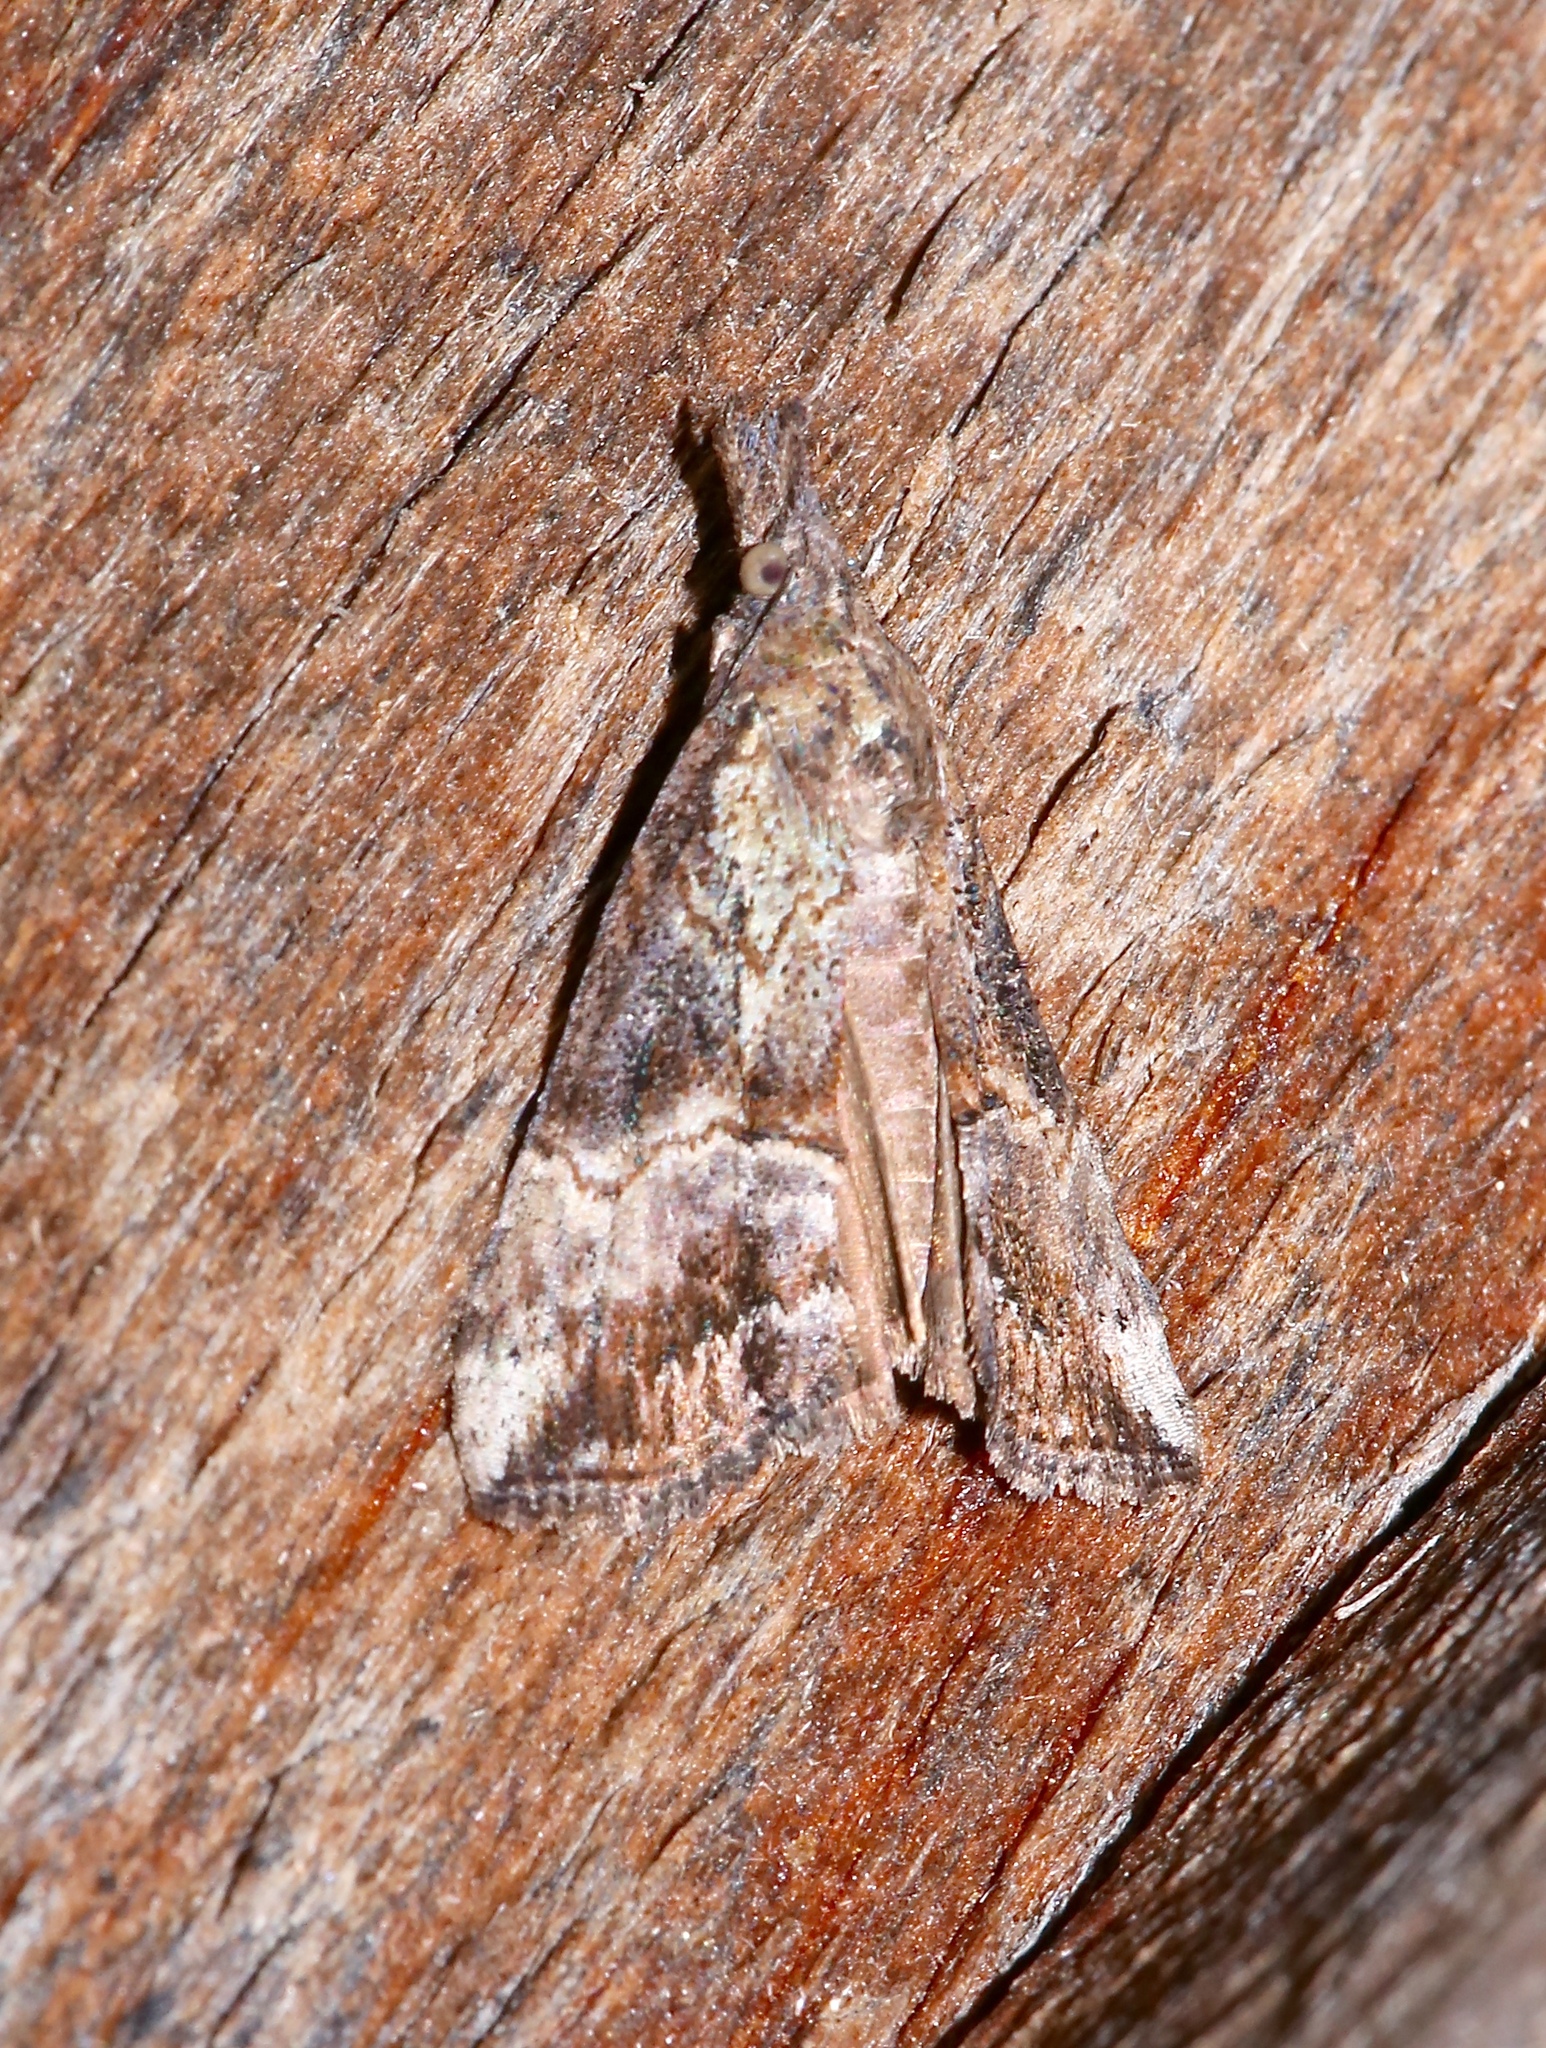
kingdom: Animalia
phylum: Arthropoda
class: Insecta
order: Lepidoptera
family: Erebidae
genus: Hypena
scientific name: Hypena scabra
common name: Green cloverworm
